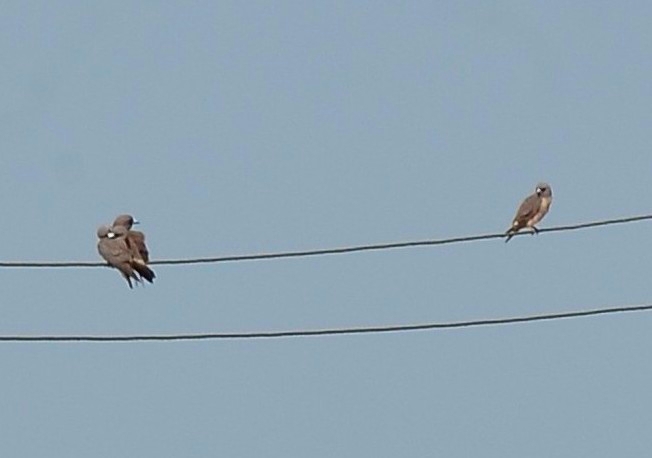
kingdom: Animalia
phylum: Chordata
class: Aves
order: Passeriformes
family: Artamidae
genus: Artamus
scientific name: Artamus fuscus
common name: Ashy woodswallow
